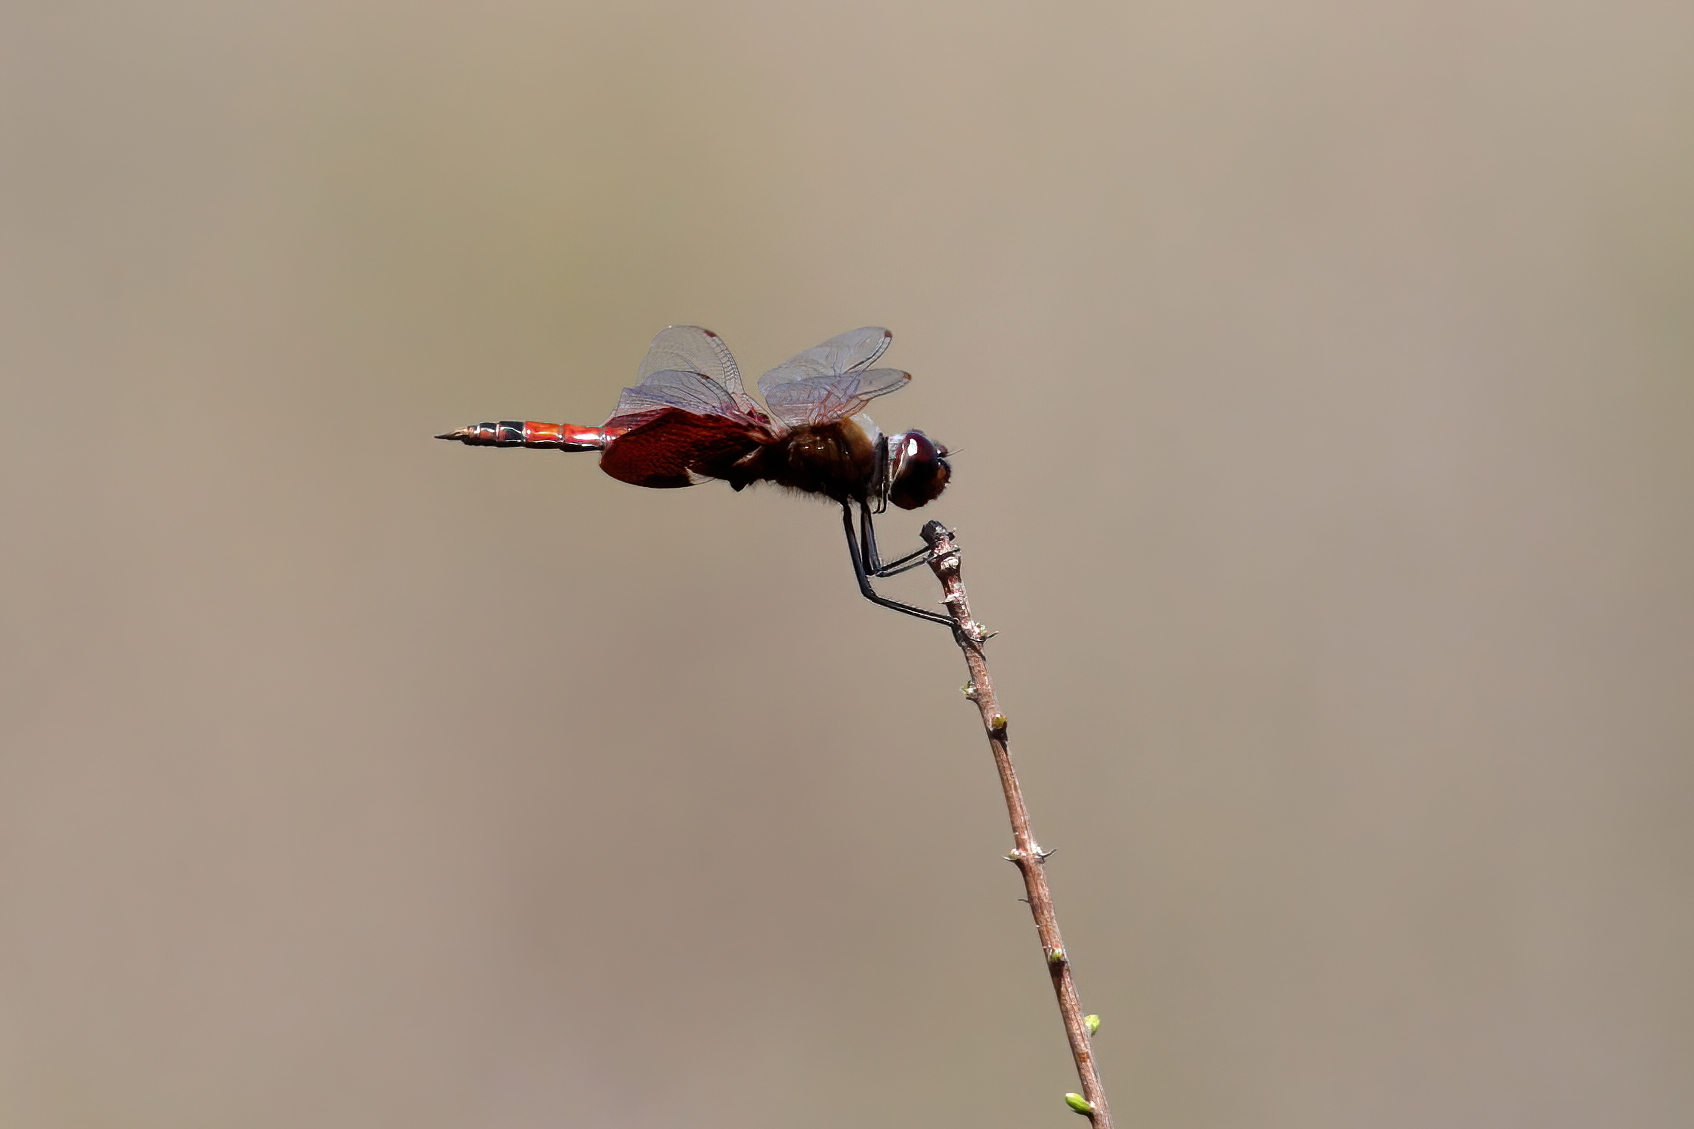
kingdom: Animalia
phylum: Arthropoda
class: Insecta
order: Odonata
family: Libellulidae
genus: Tramea
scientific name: Tramea carolina
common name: Carolina saddlebags
